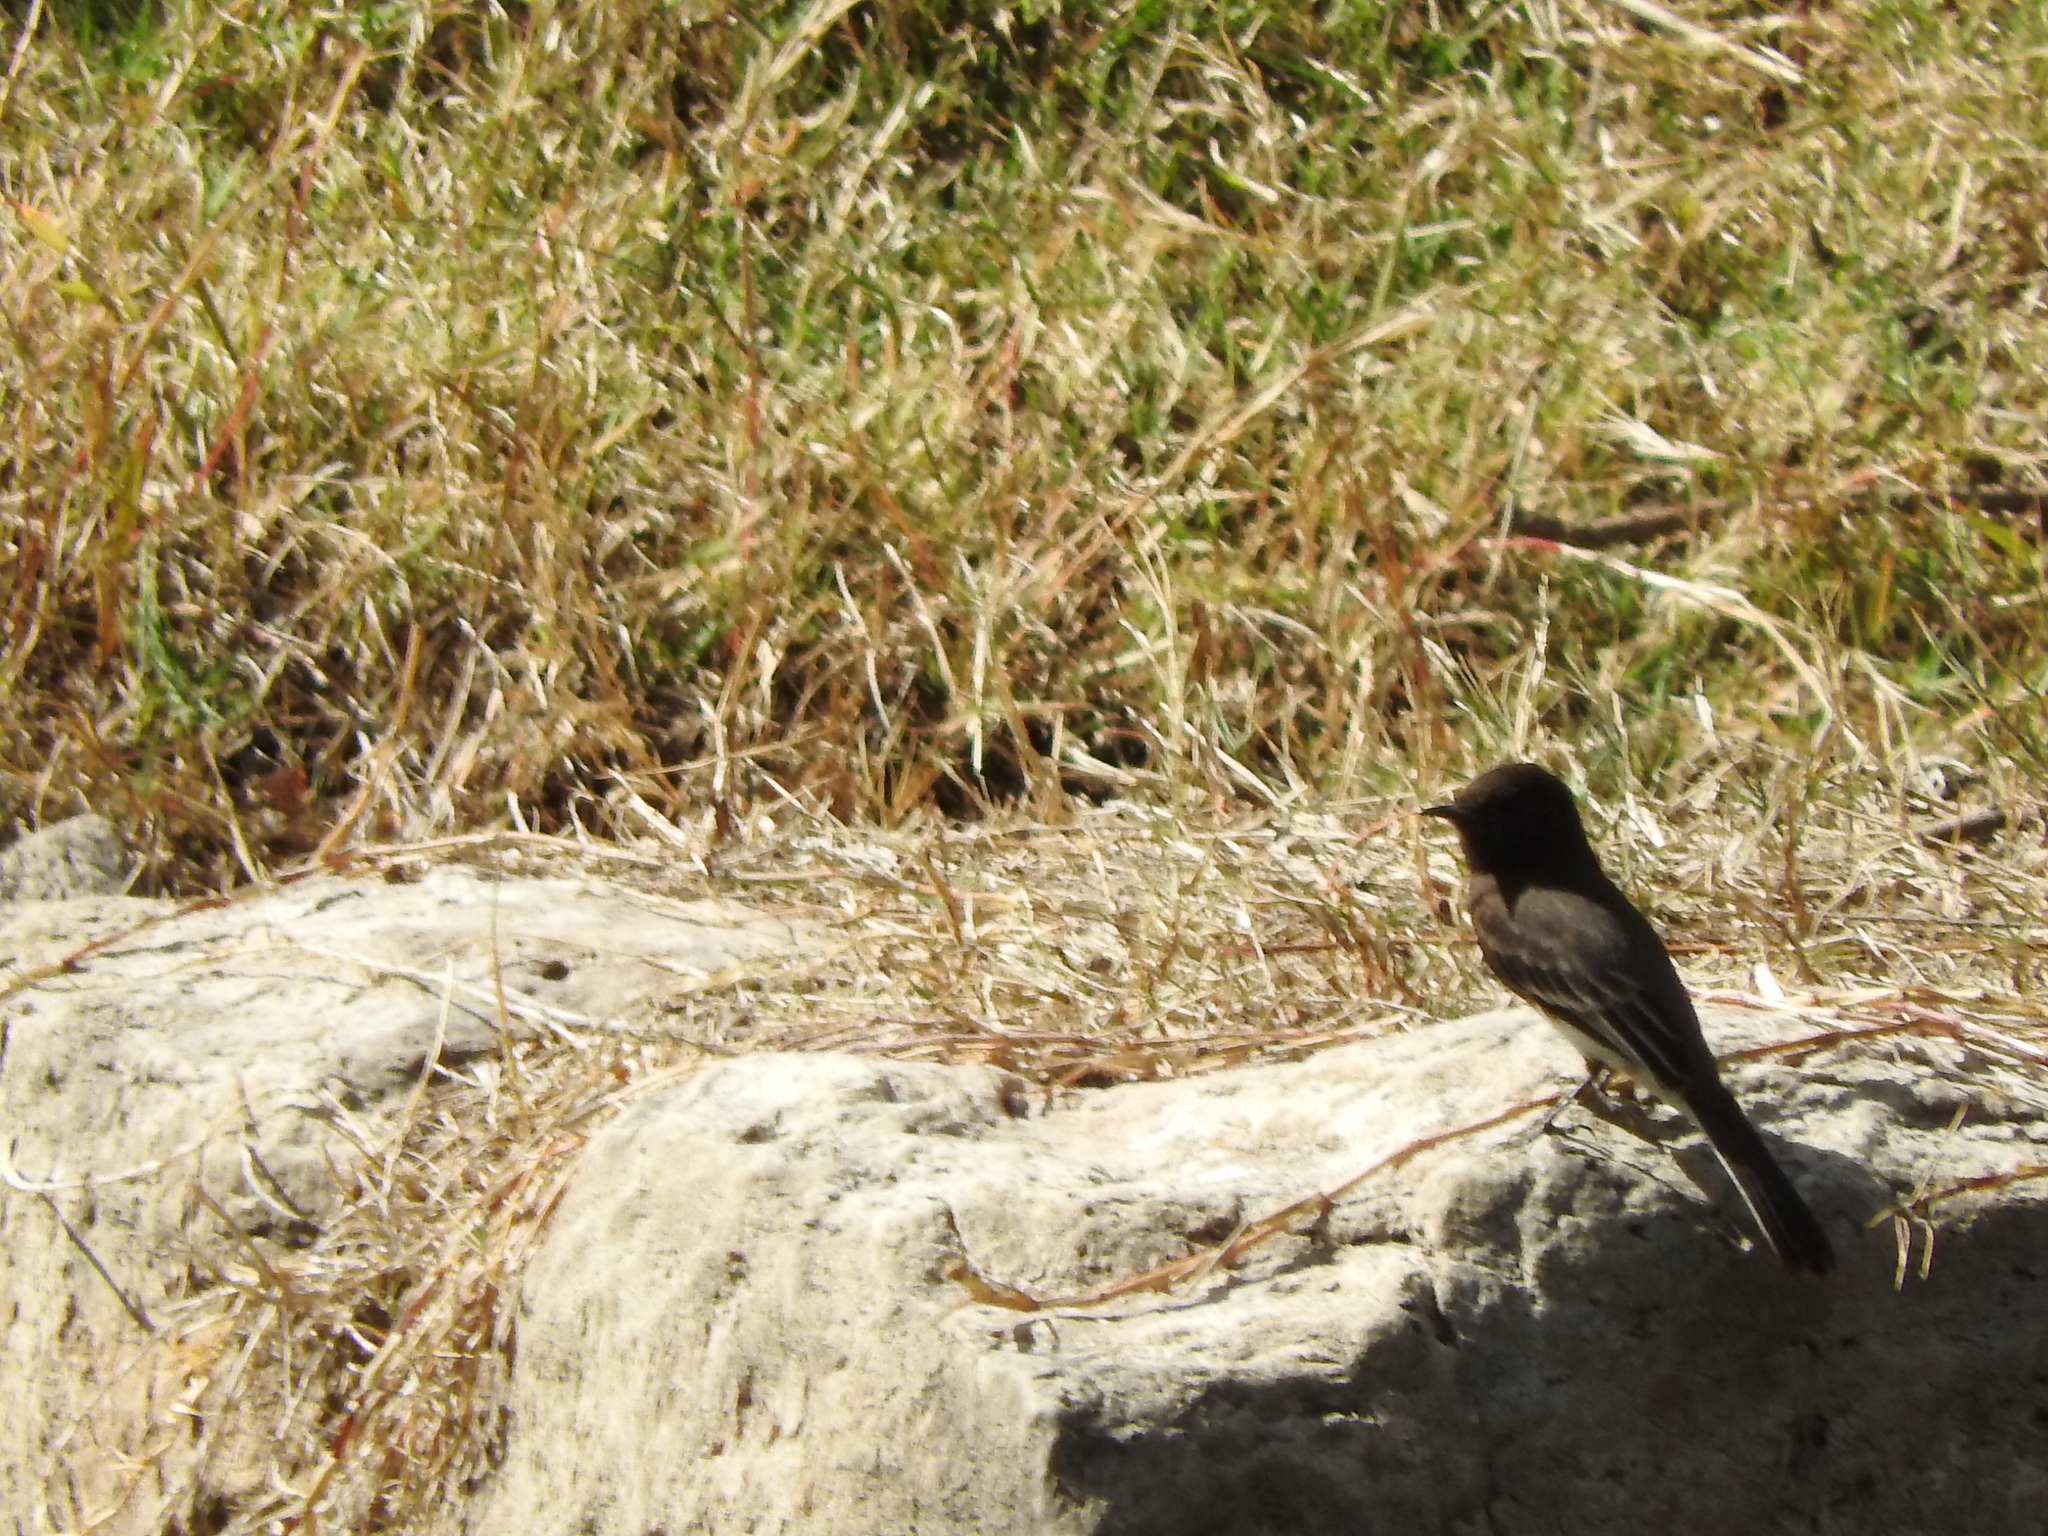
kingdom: Animalia
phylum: Chordata
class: Aves
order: Passeriformes
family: Tyrannidae
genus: Sayornis
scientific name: Sayornis nigricans
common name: Black phoebe
